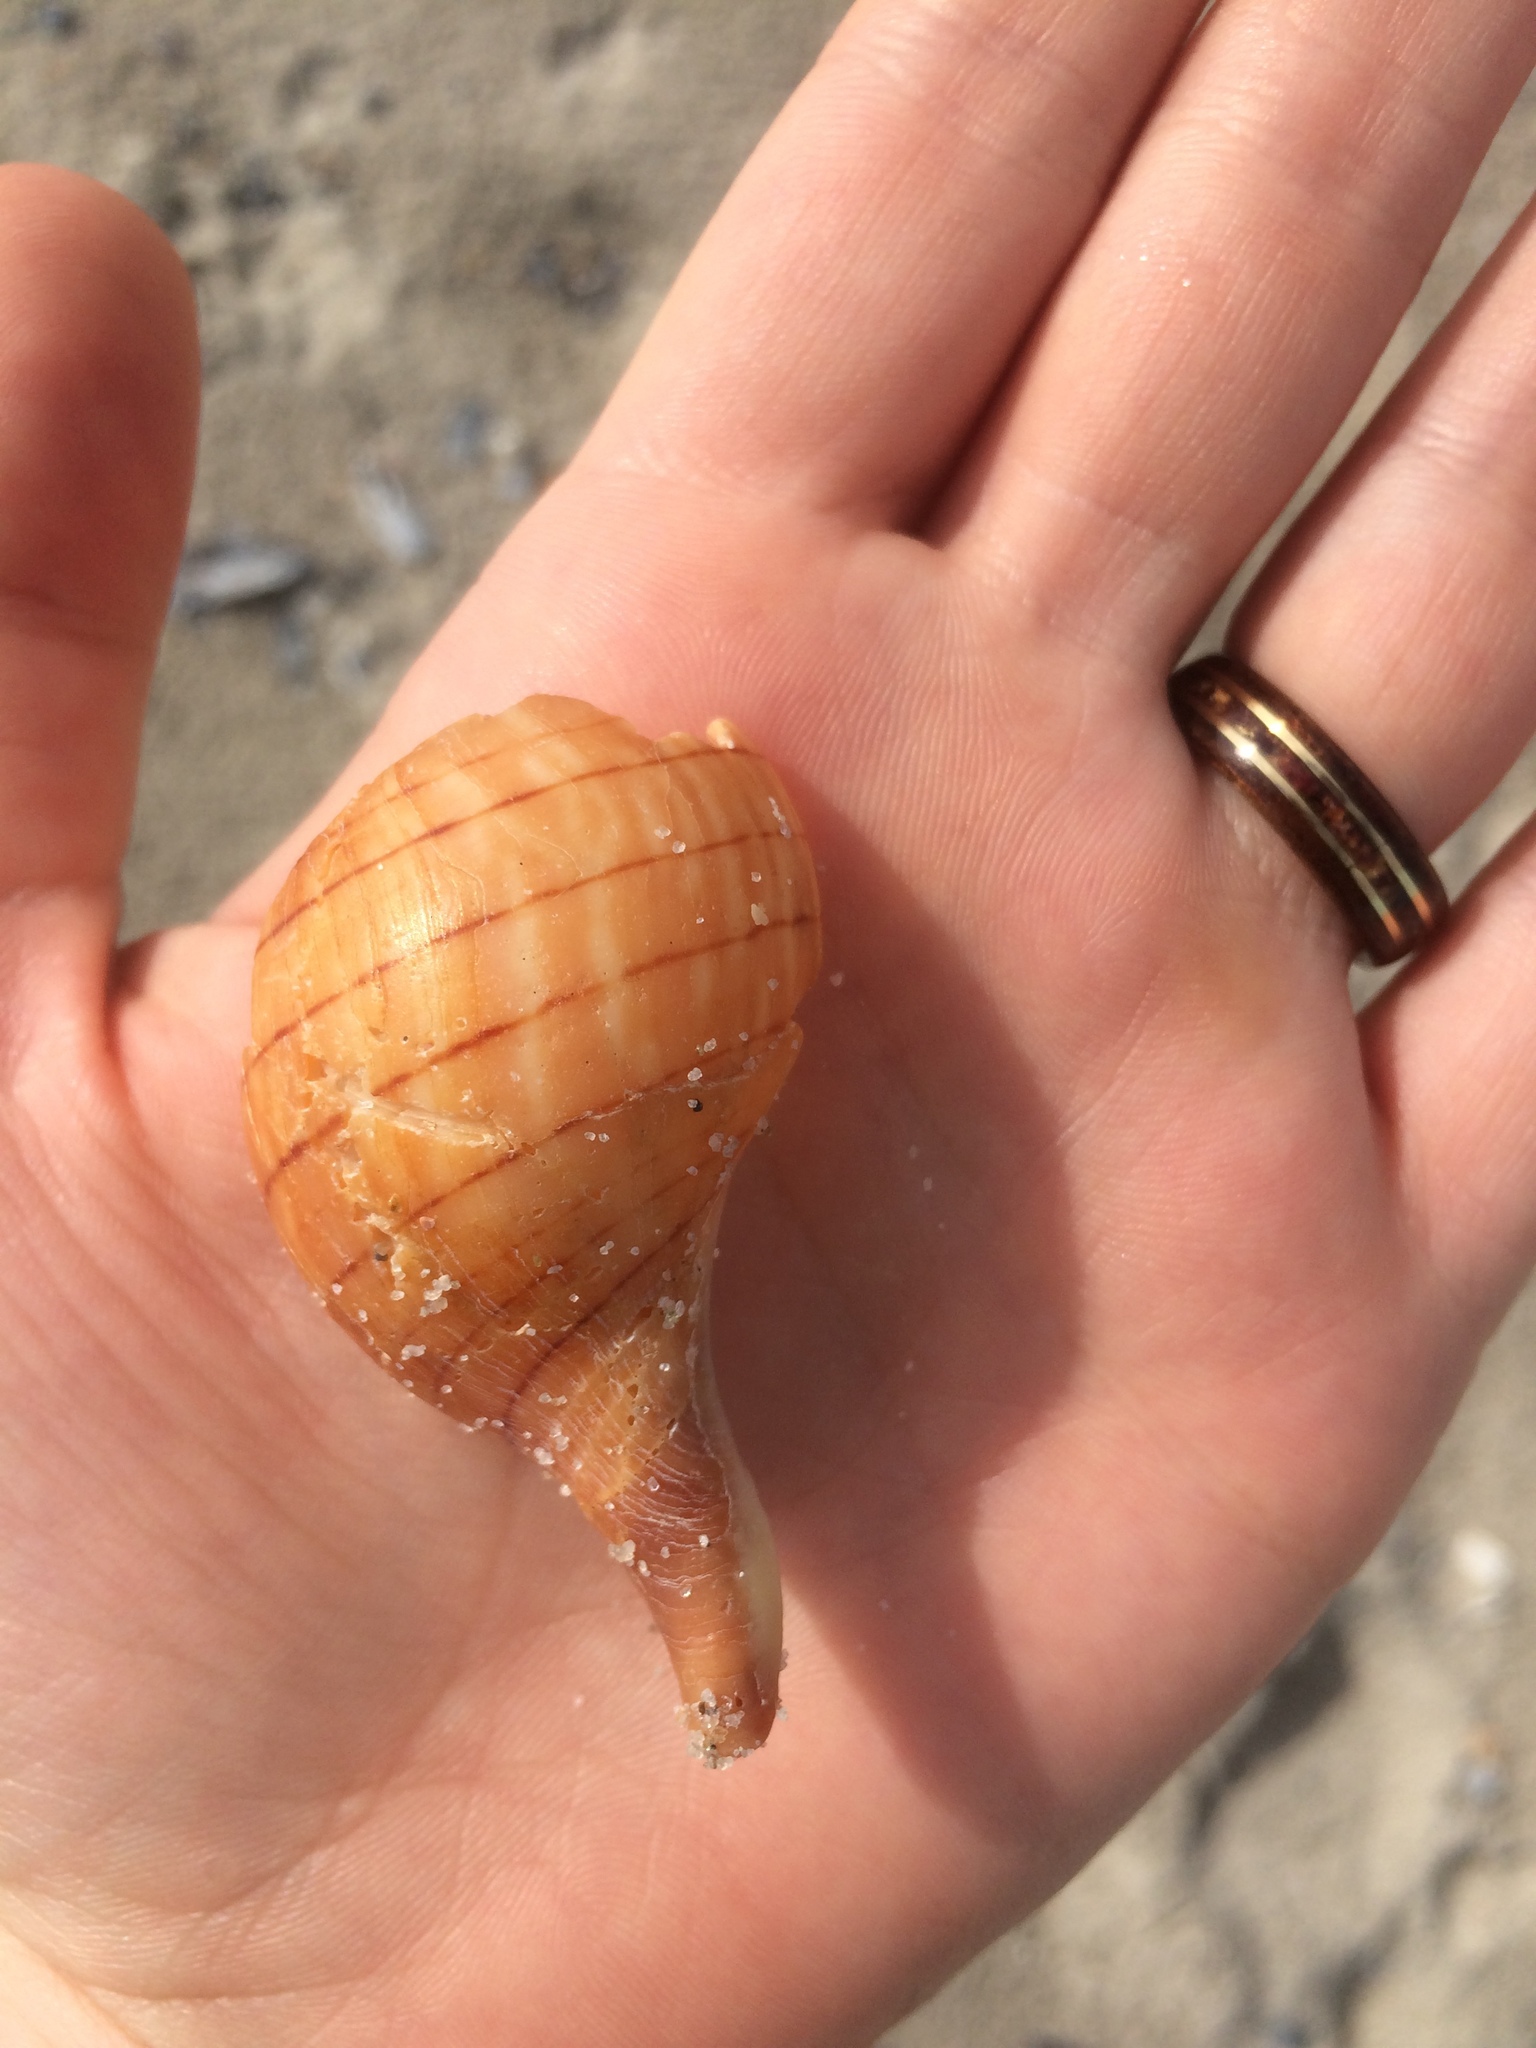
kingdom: Animalia
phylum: Mollusca
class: Gastropoda
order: Neogastropoda
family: Fasciolariidae
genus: Cinctura
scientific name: Cinctura hunteria
